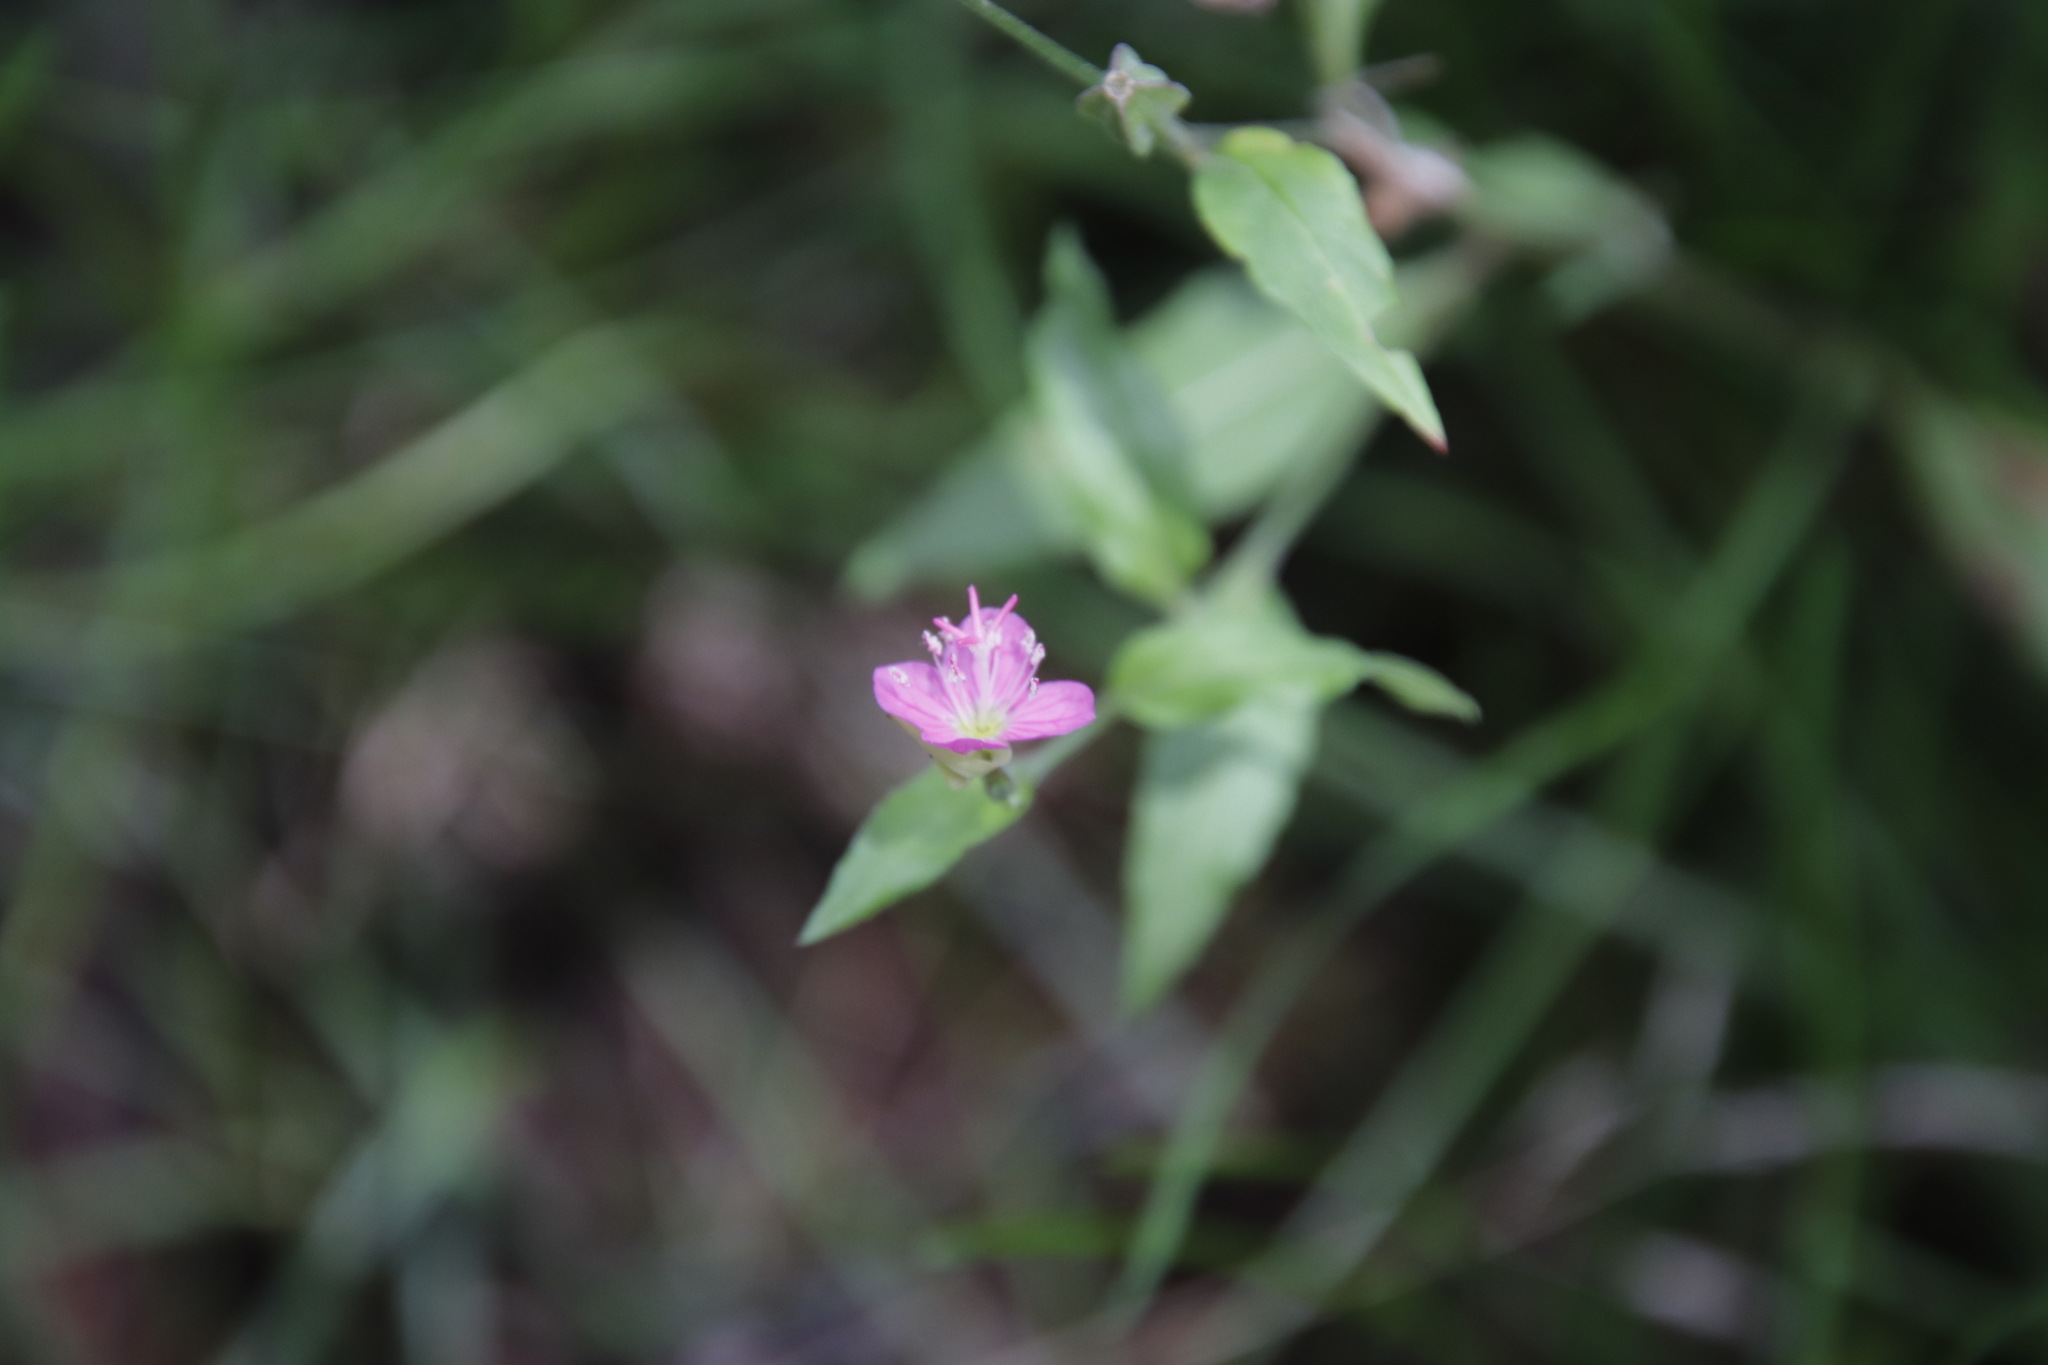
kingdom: Plantae
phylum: Tracheophyta
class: Magnoliopsida
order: Myrtales
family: Onagraceae
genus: Oenothera
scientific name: Oenothera rosea
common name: Rosy evening-primrose
